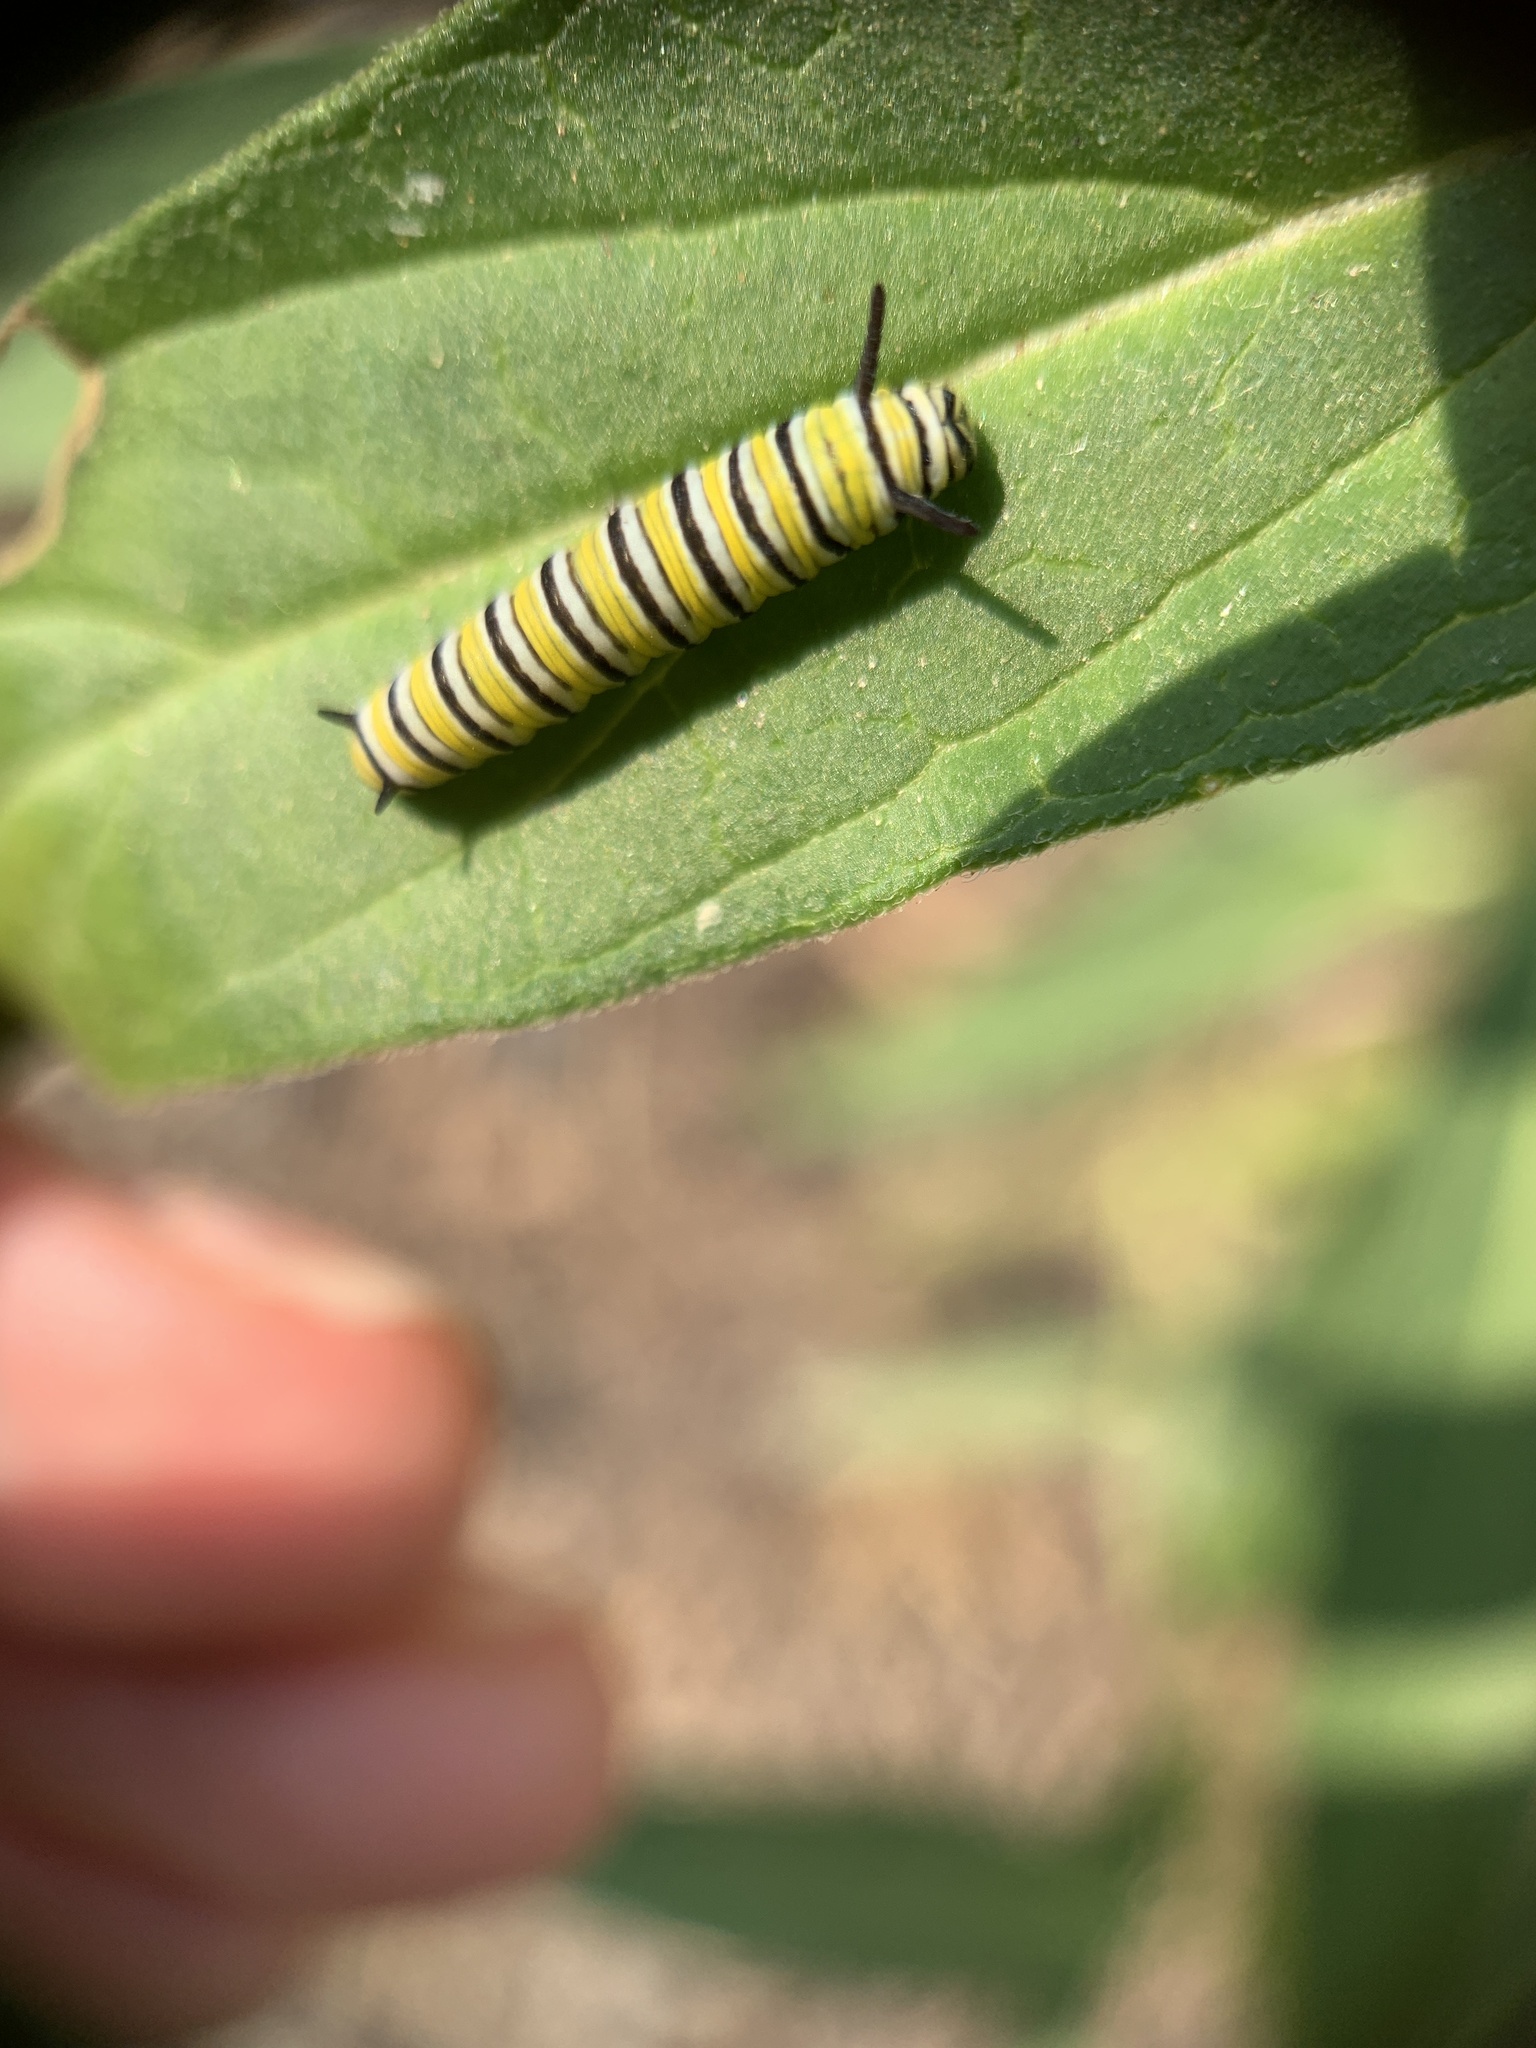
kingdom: Animalia
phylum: Arthropoda
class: Insecta
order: Lepidoptera
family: Nymphalidae
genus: Danaus
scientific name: Danaus plexippus
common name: Monarch
